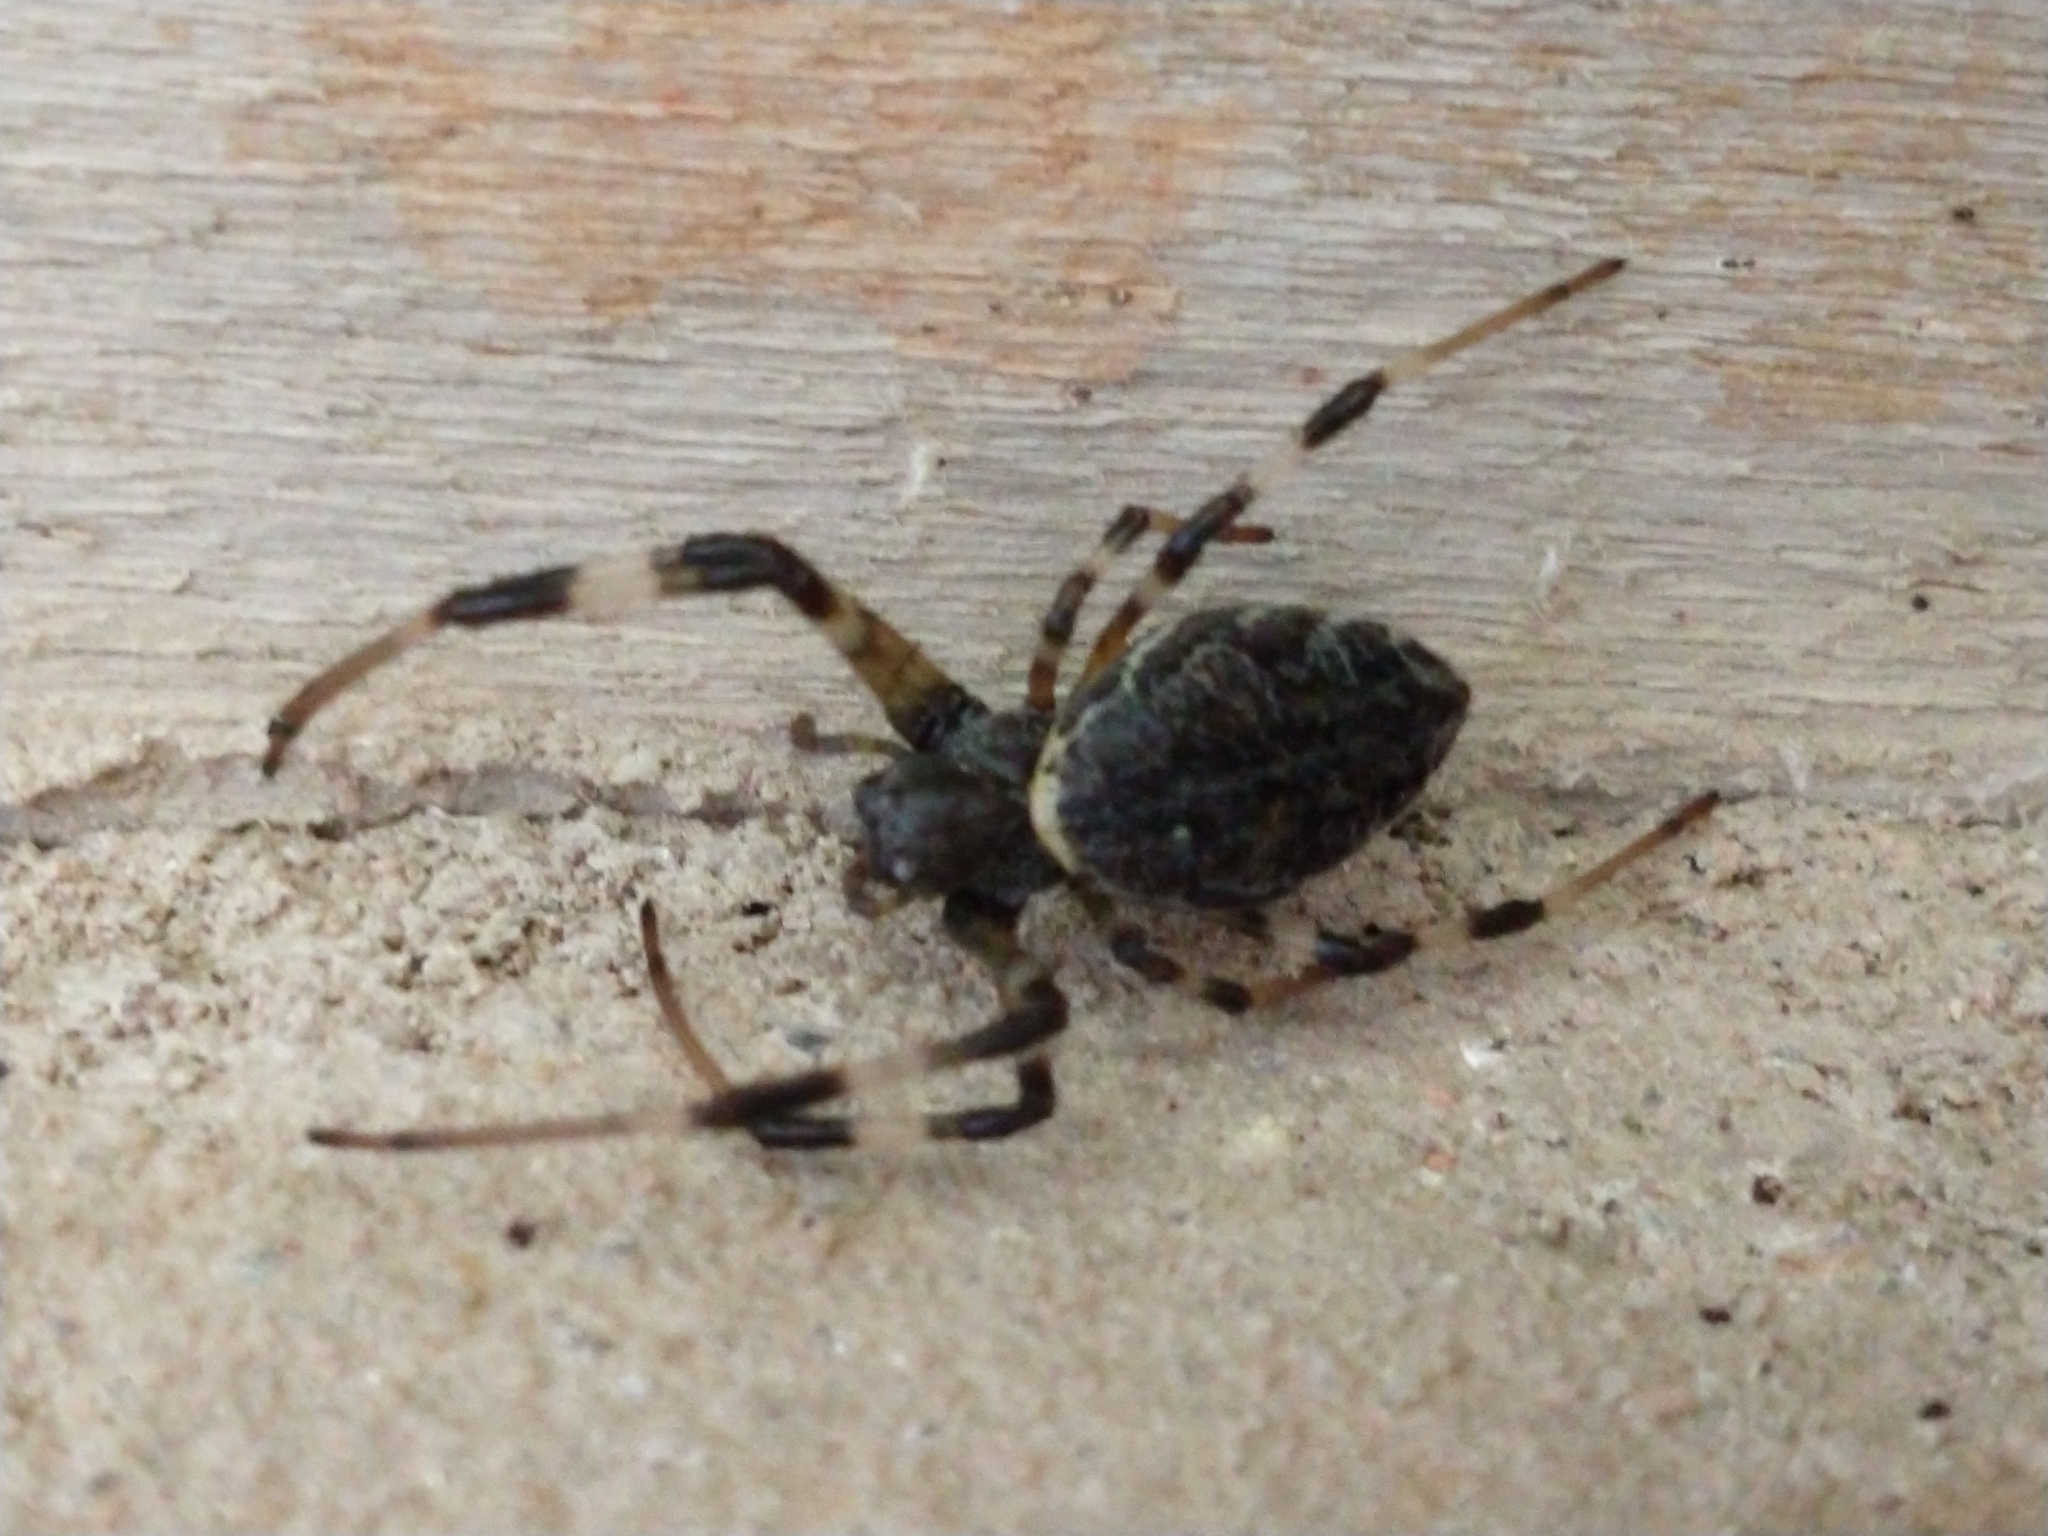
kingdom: Animalia
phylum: Arthropoda
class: Arachnida
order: Araneae
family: Araneidae
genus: Nephilingis
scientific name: Nephilingis cruentata
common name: African hermit spider
